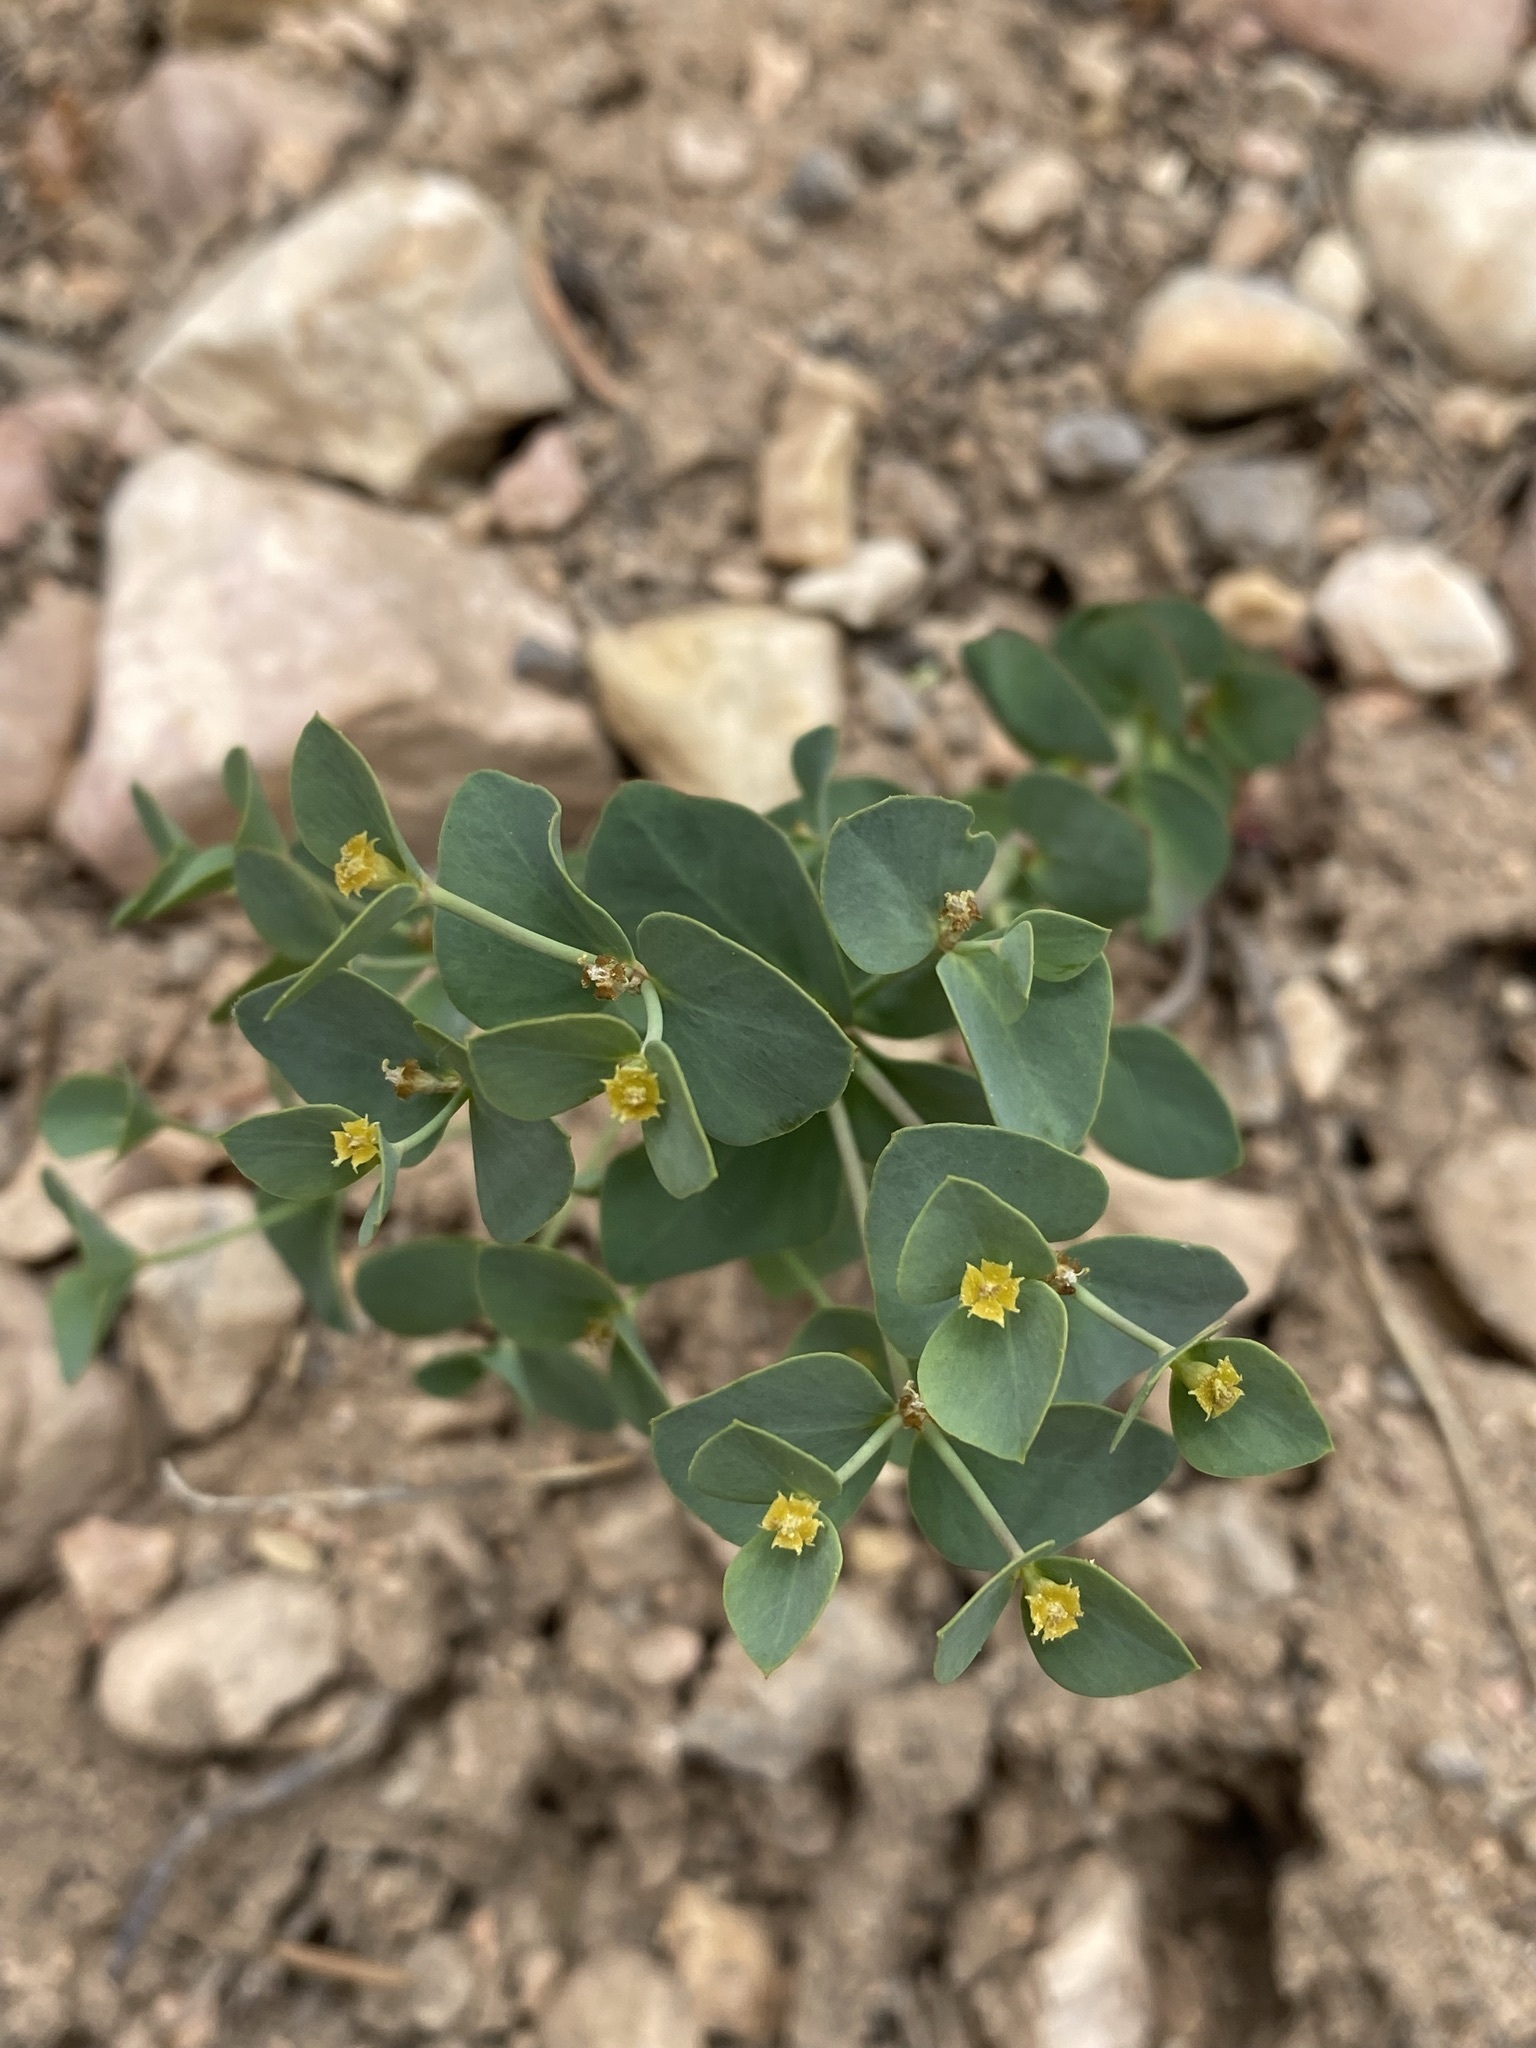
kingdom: Plantae
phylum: Tracheophyta
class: Magnoliopsida
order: Malpighiales
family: Euphorbiaceae
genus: Euphorbia
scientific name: Euphorbia brachycera
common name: Shorthorn spurge
